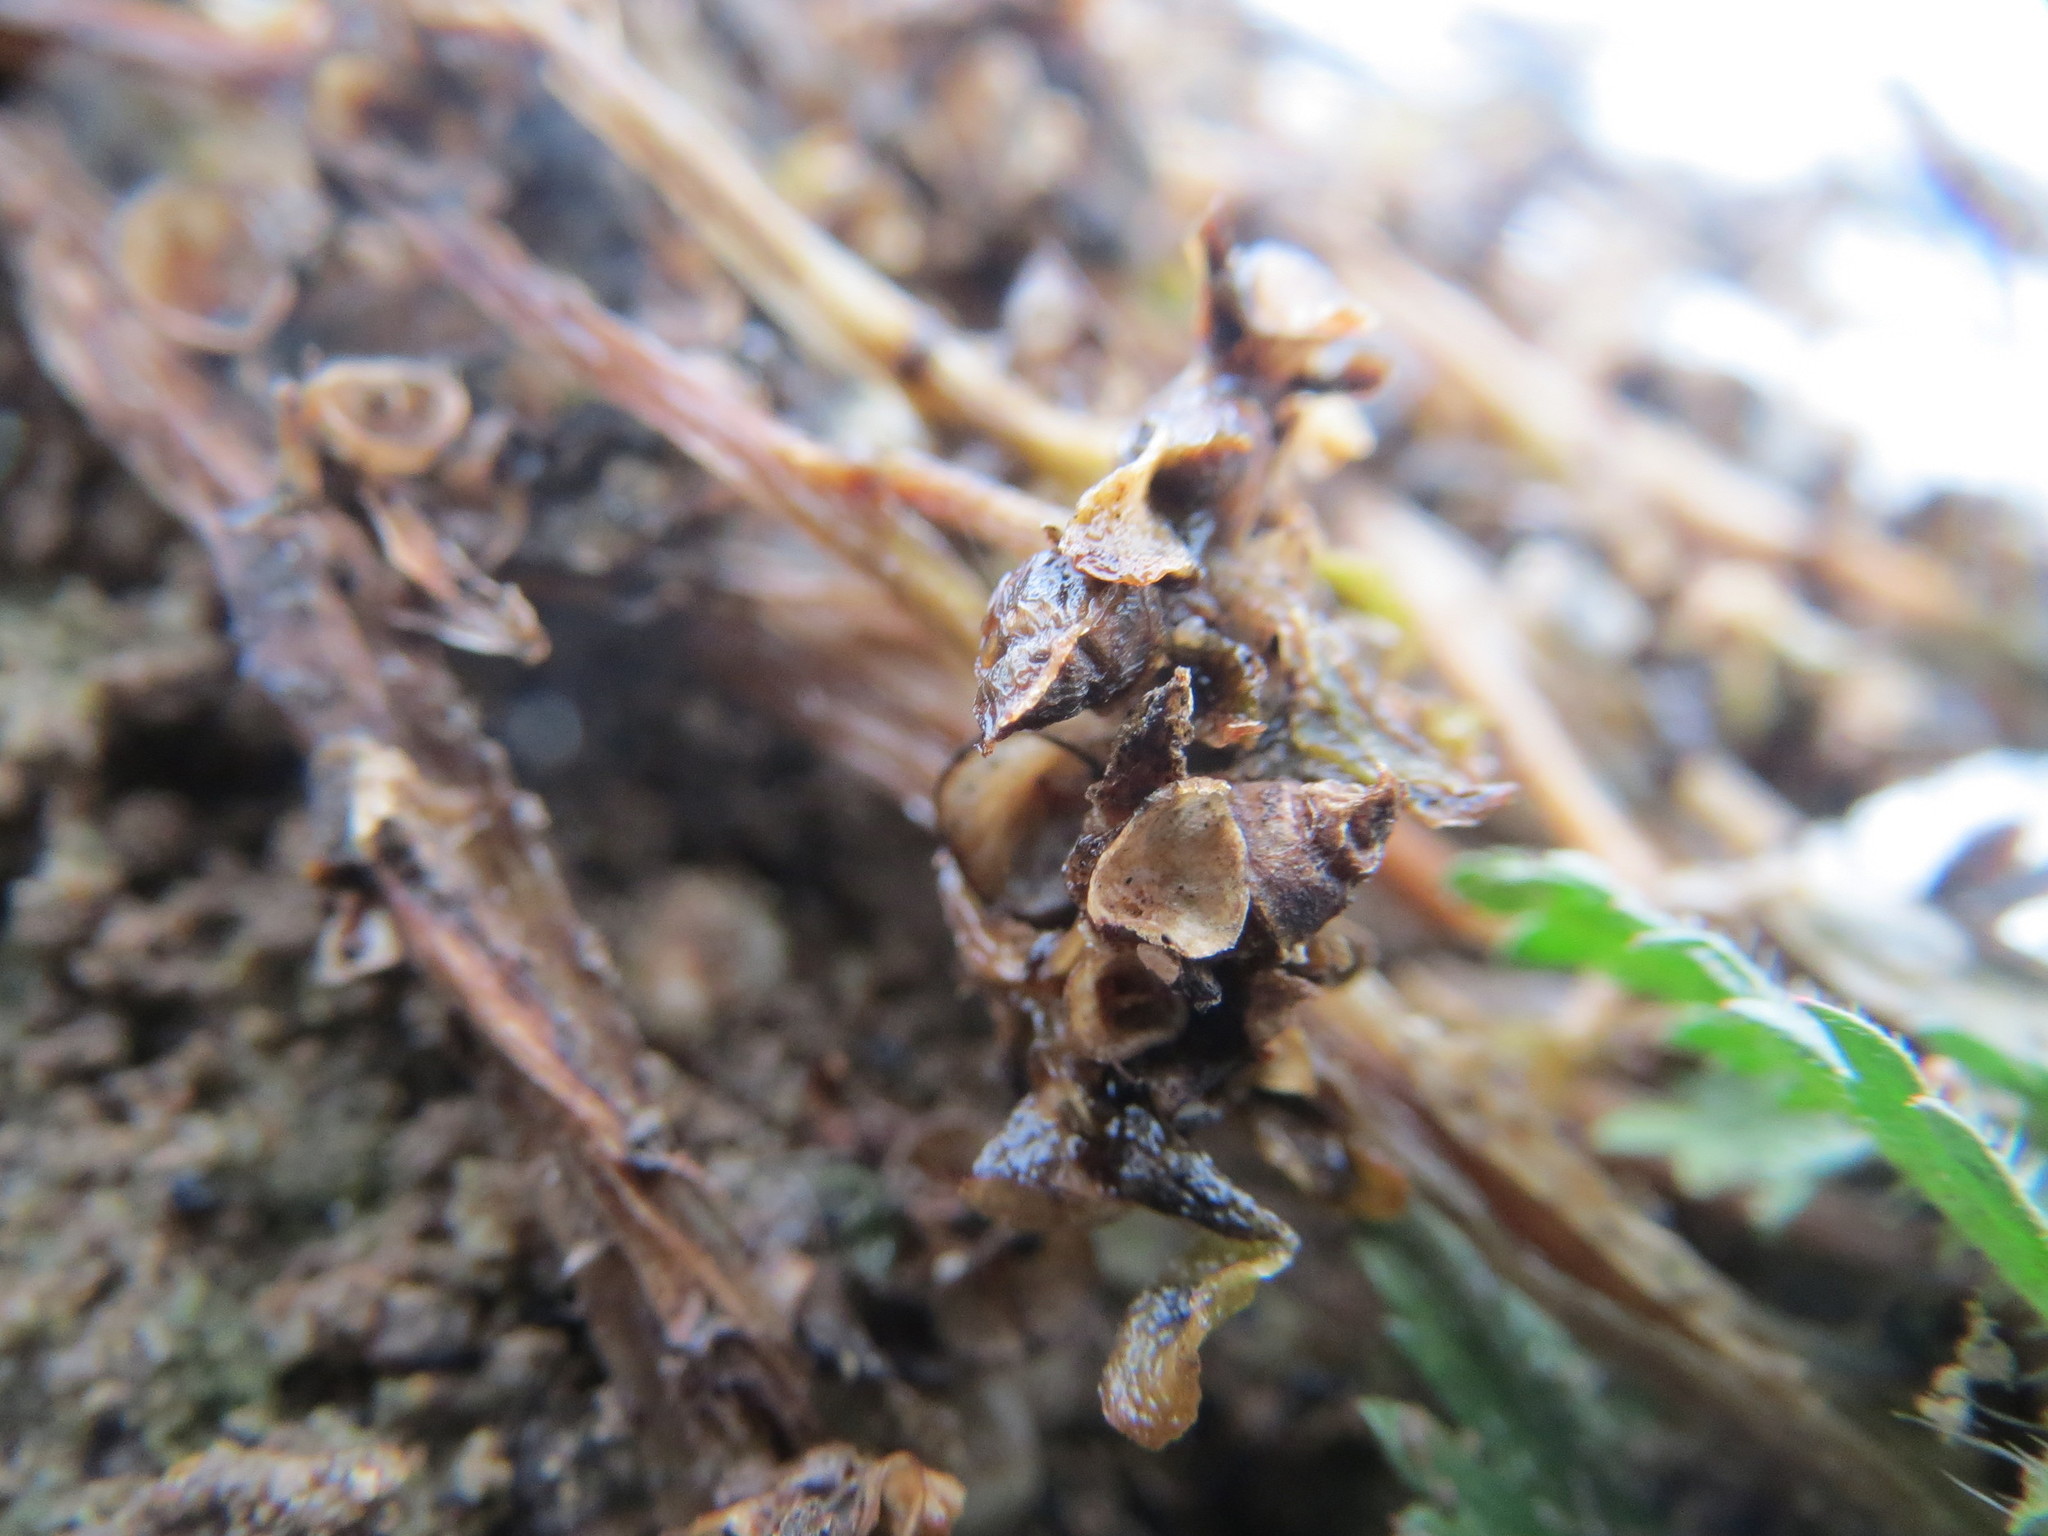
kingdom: Plantae
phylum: Tracheophyta
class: Magnoliopsida
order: Caryophyllales
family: Portulacaceae
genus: Portulaca
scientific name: Portulaca oleracea
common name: Common purslane
